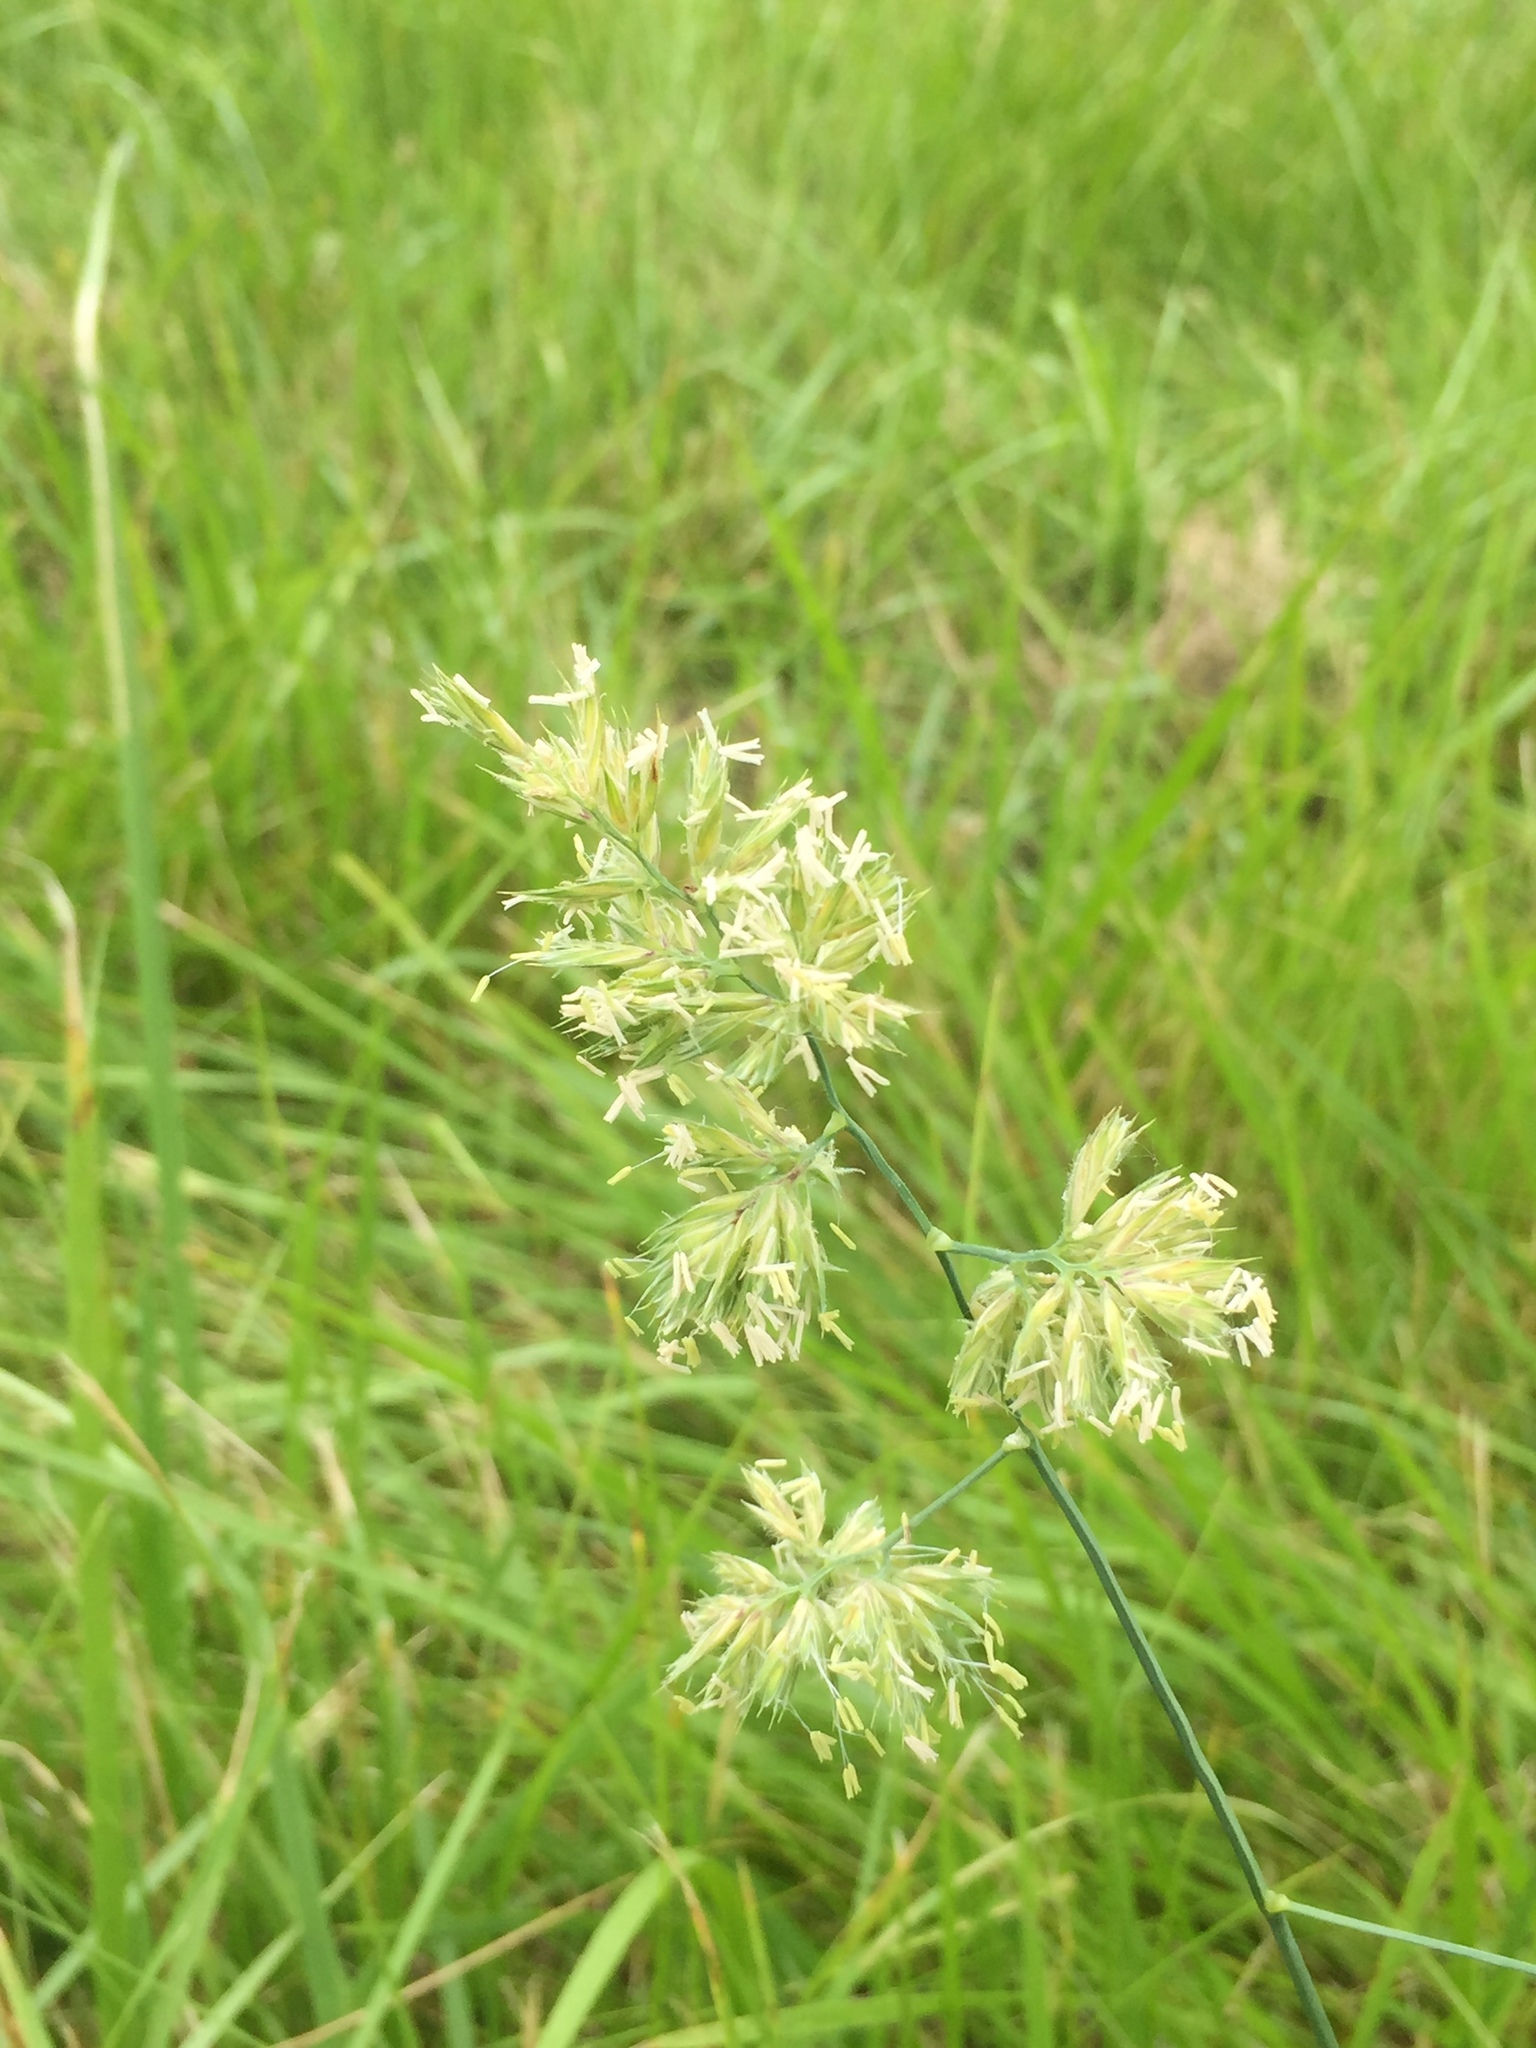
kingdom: Plantae
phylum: Tracheophyta
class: Liliopsida
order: Poales
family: Poaceae
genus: Dactylis
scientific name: Dactylis glomerata
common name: Orchardgrass
